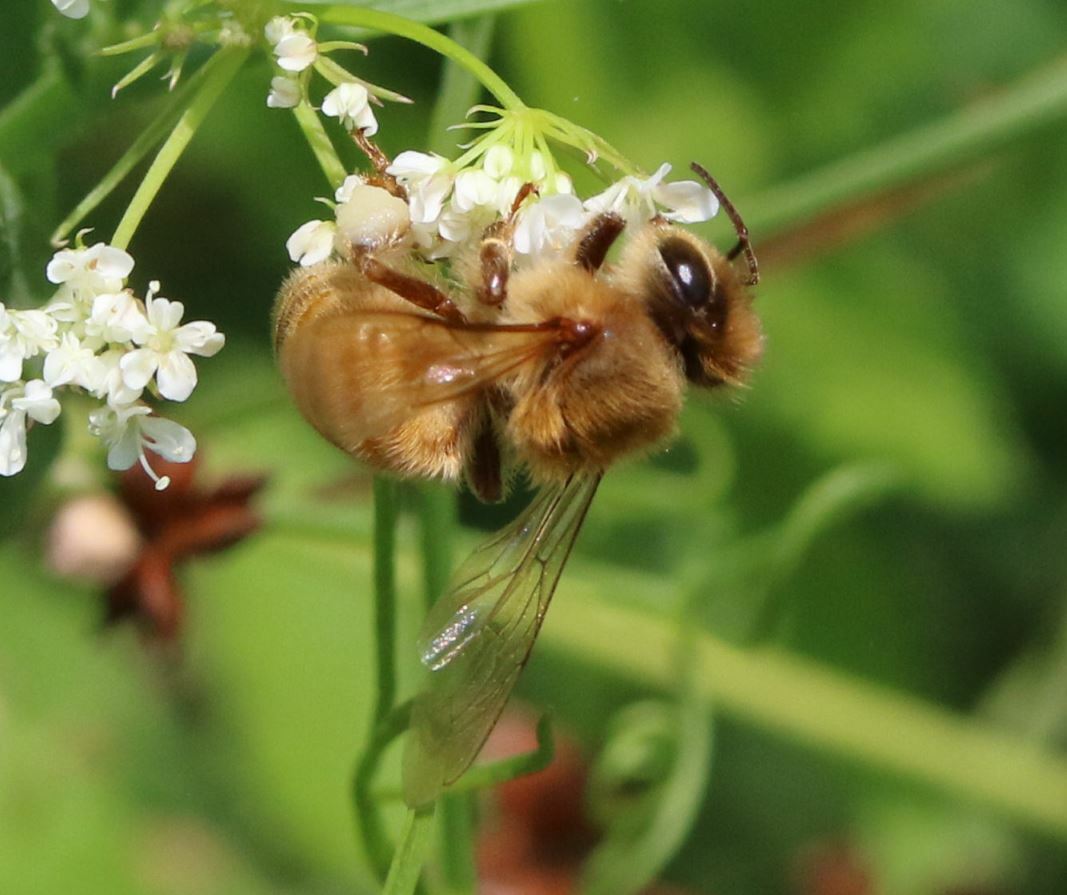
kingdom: Animalia
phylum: Arthropoda
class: Insecta
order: Hymenoptera
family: Apidae
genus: Apis
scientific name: Apis mellifera
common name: Honey bee
